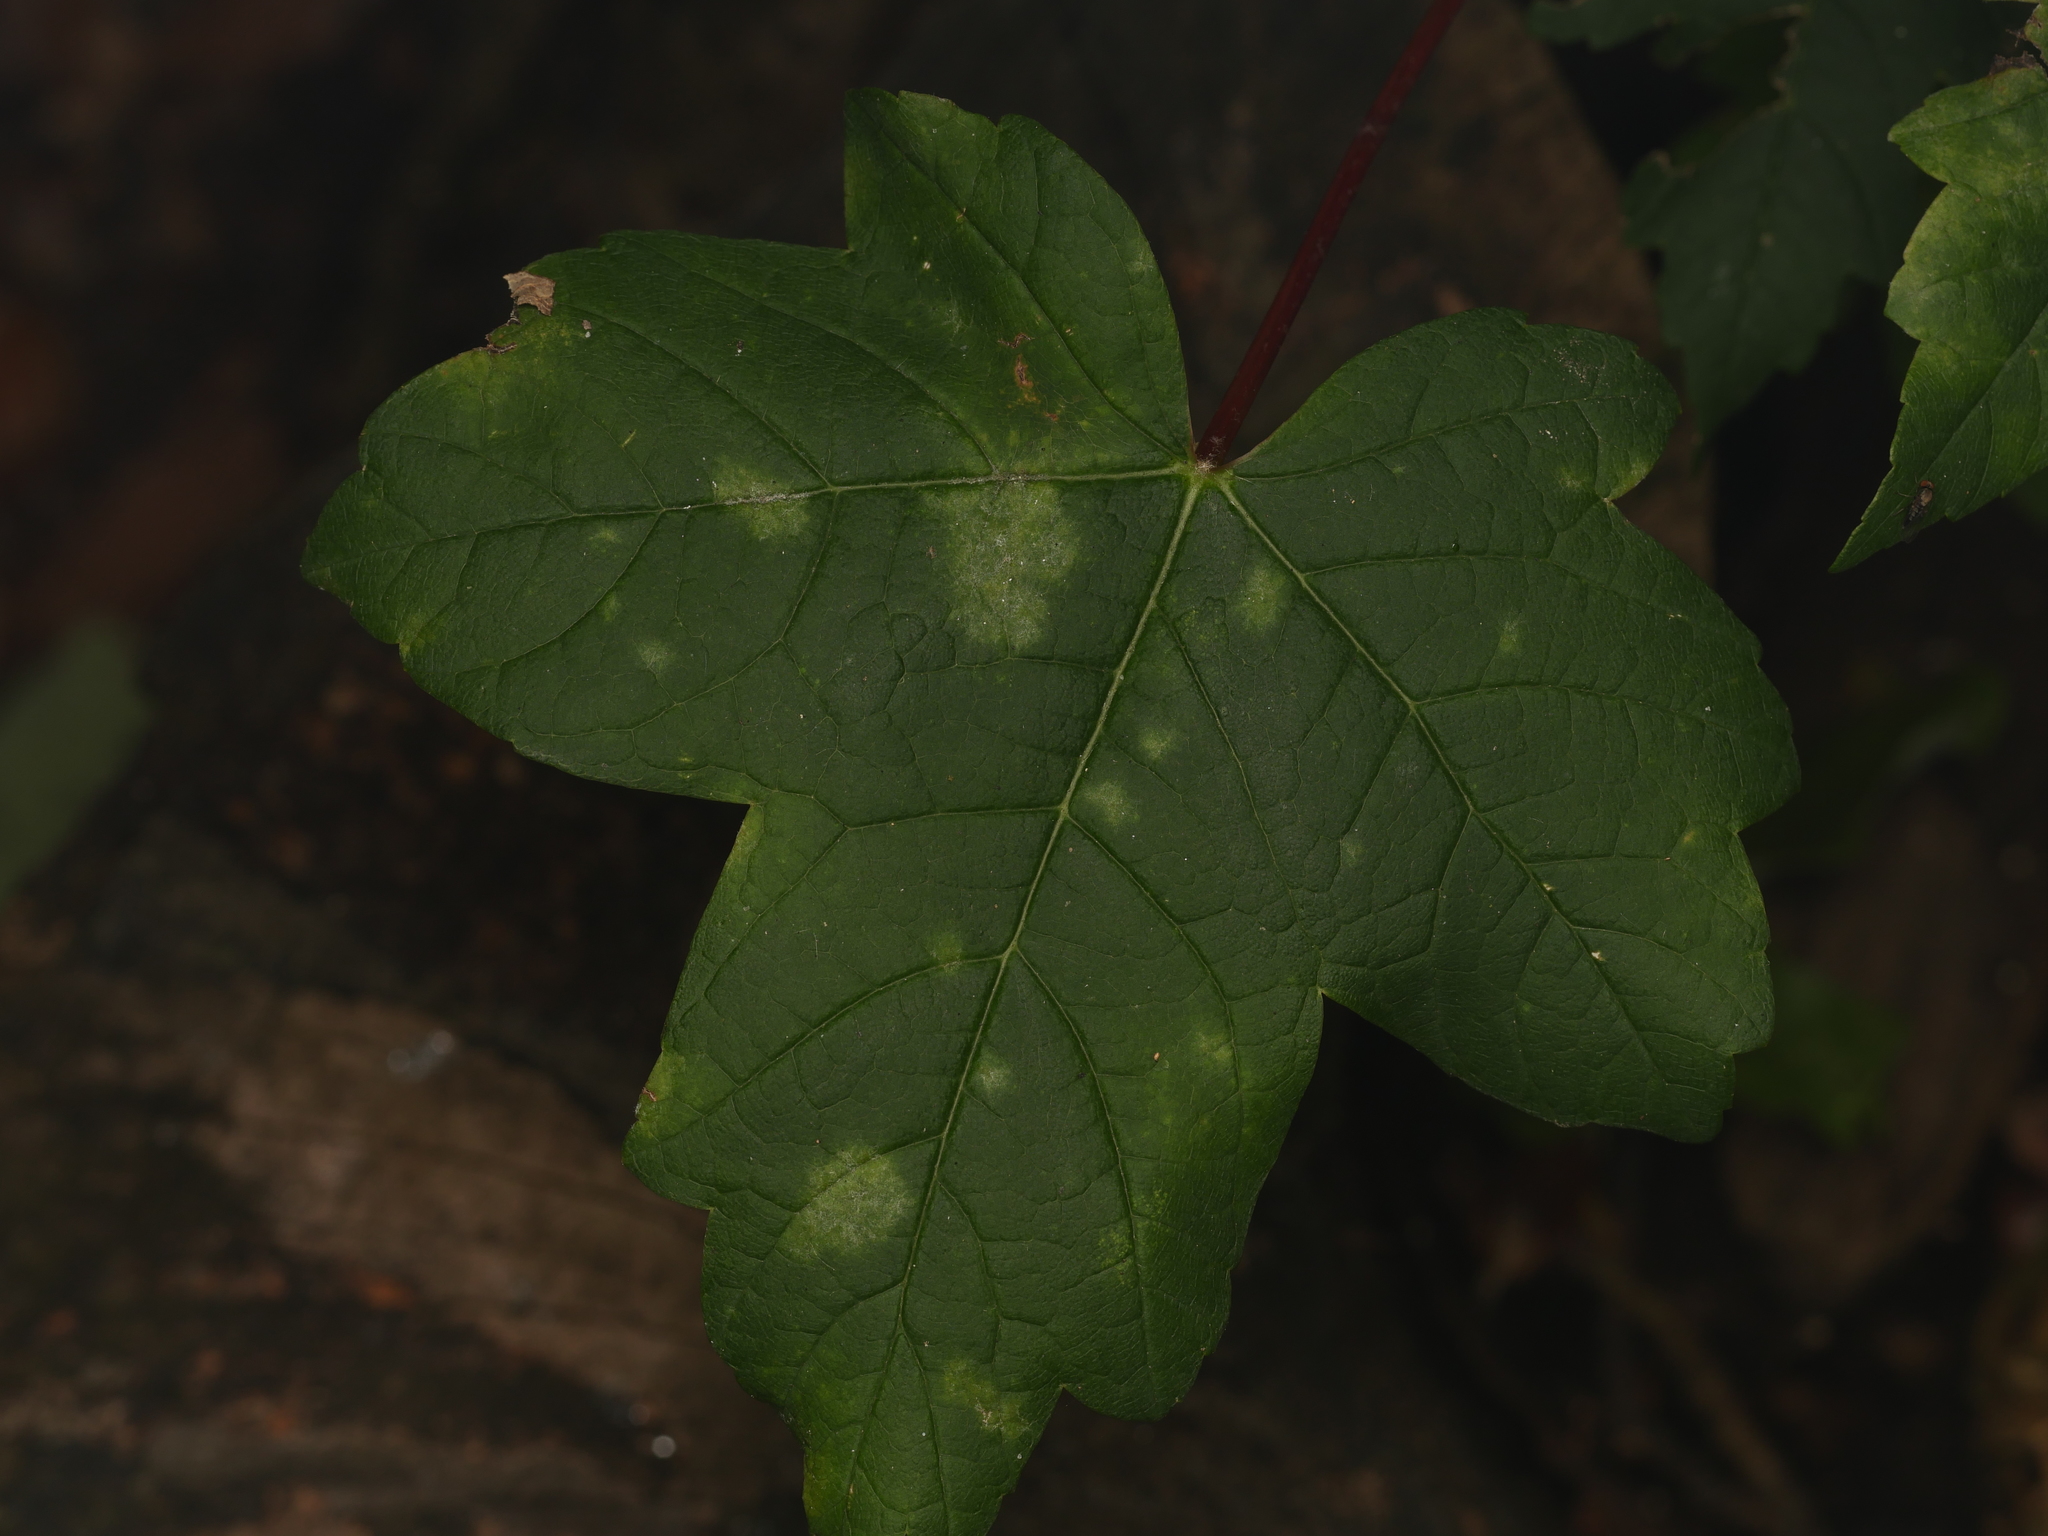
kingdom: Plantae
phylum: Tracheophyta
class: Magnoliopsida
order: Sapindales
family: Sapindaceae
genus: Acer
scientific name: Acer pseudoplatanus
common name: Sycamore
